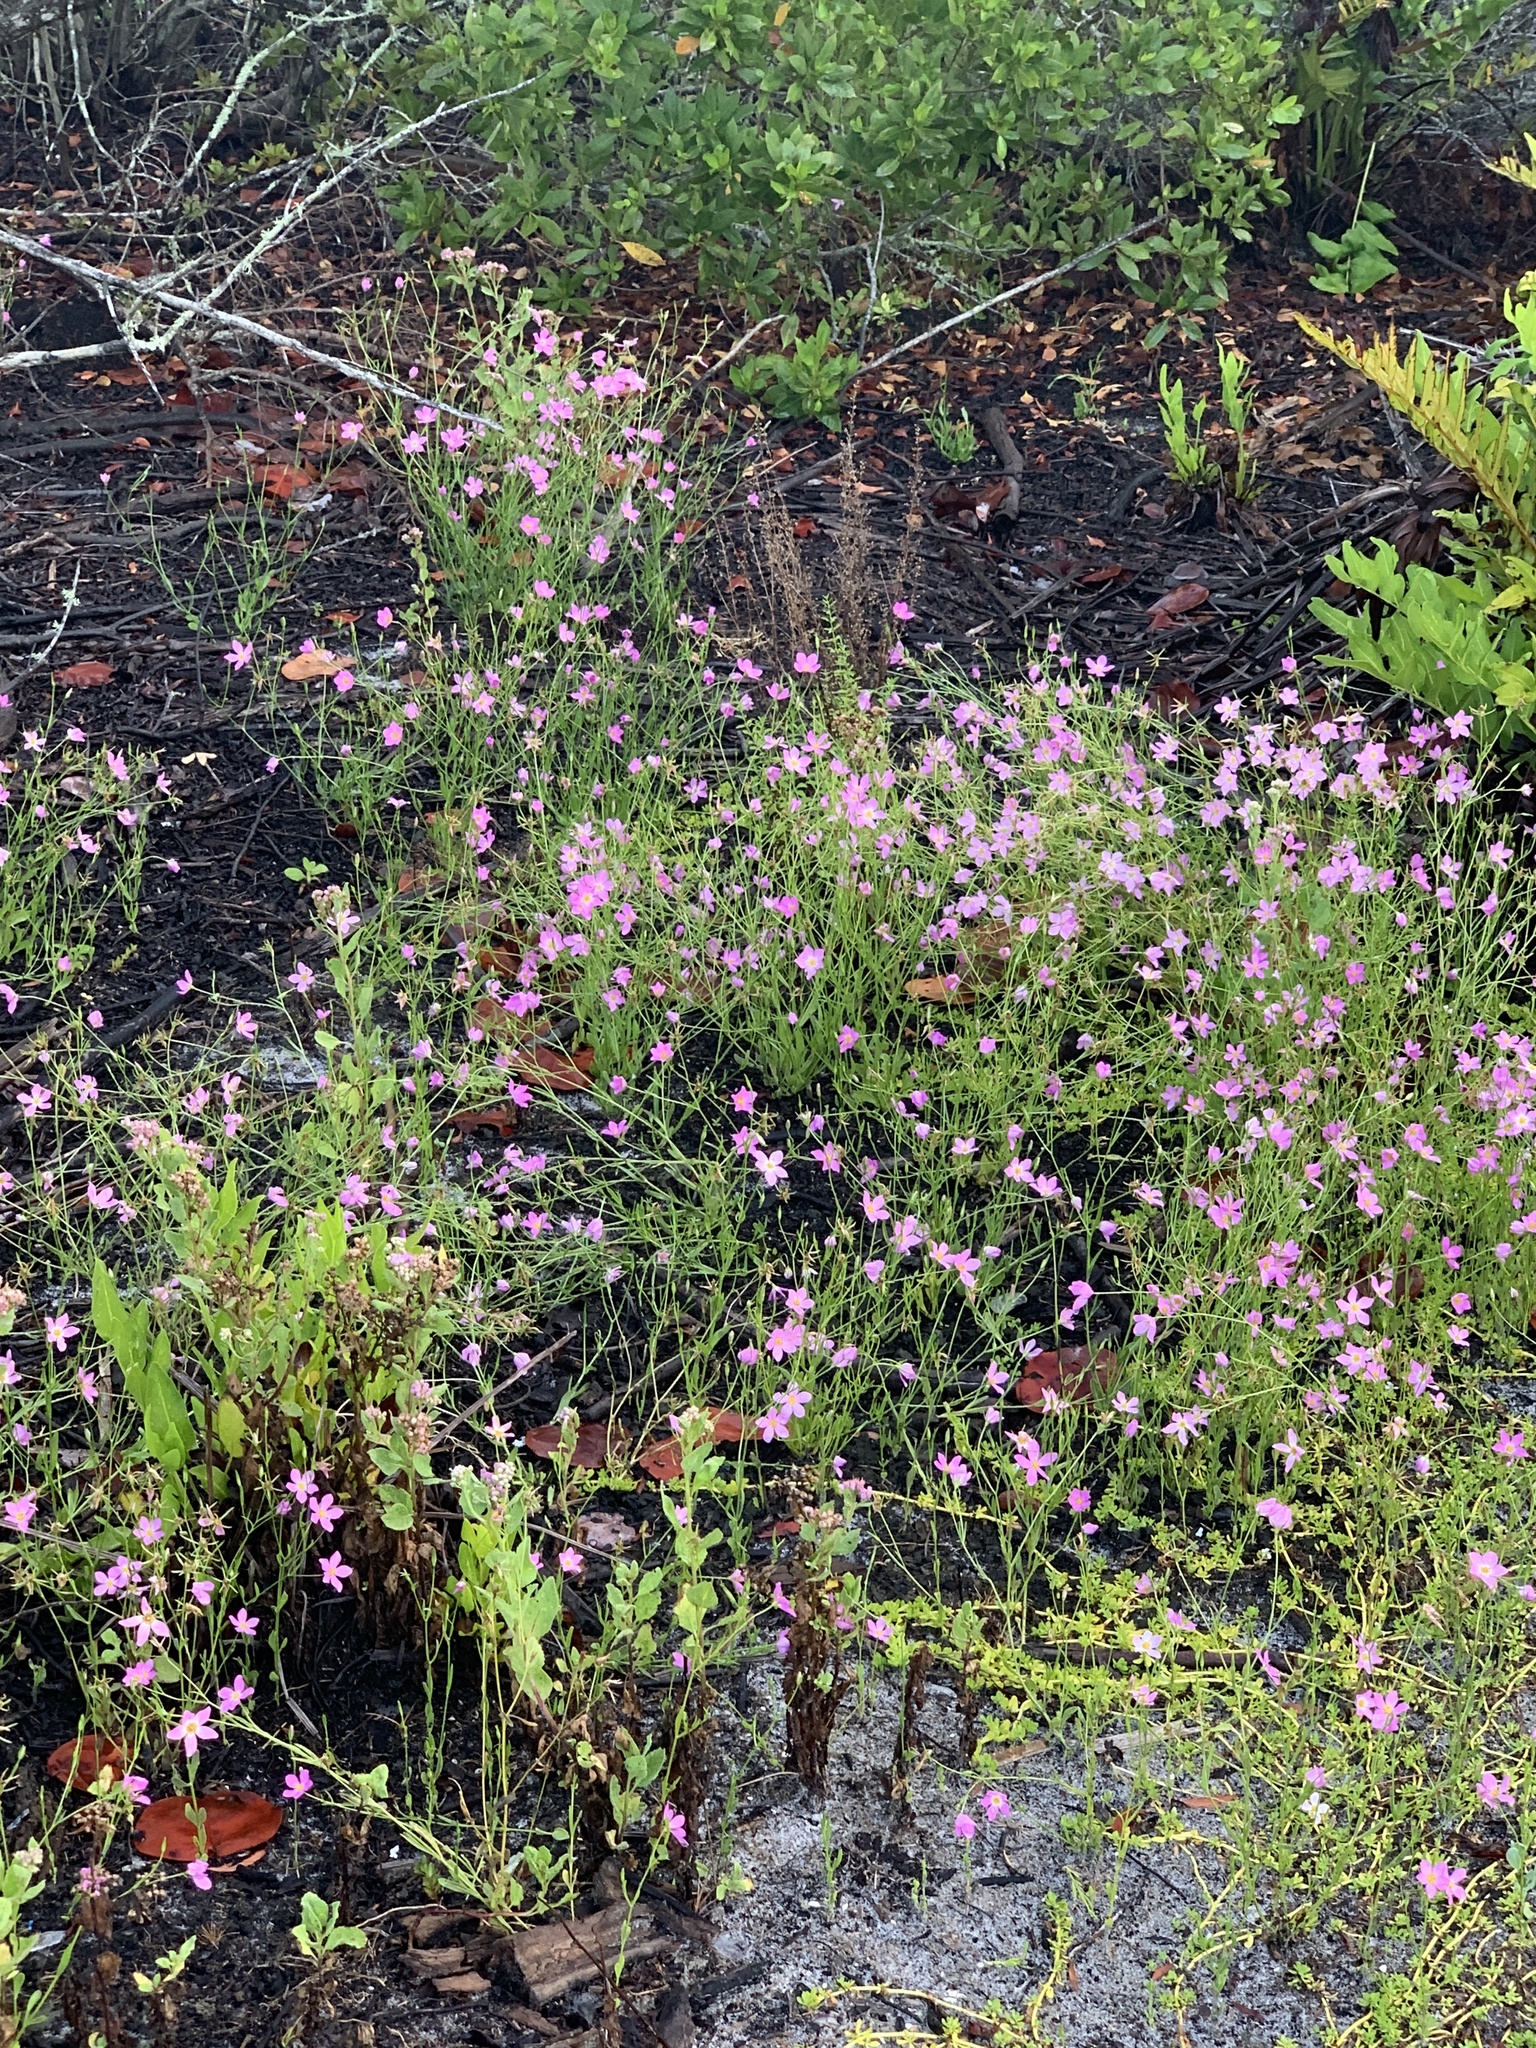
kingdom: Plantae
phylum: Tracheophyta
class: Magnoliopsida
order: Gentianales
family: Gentianaceae
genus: Sabatia
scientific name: Sabatia stellaris
